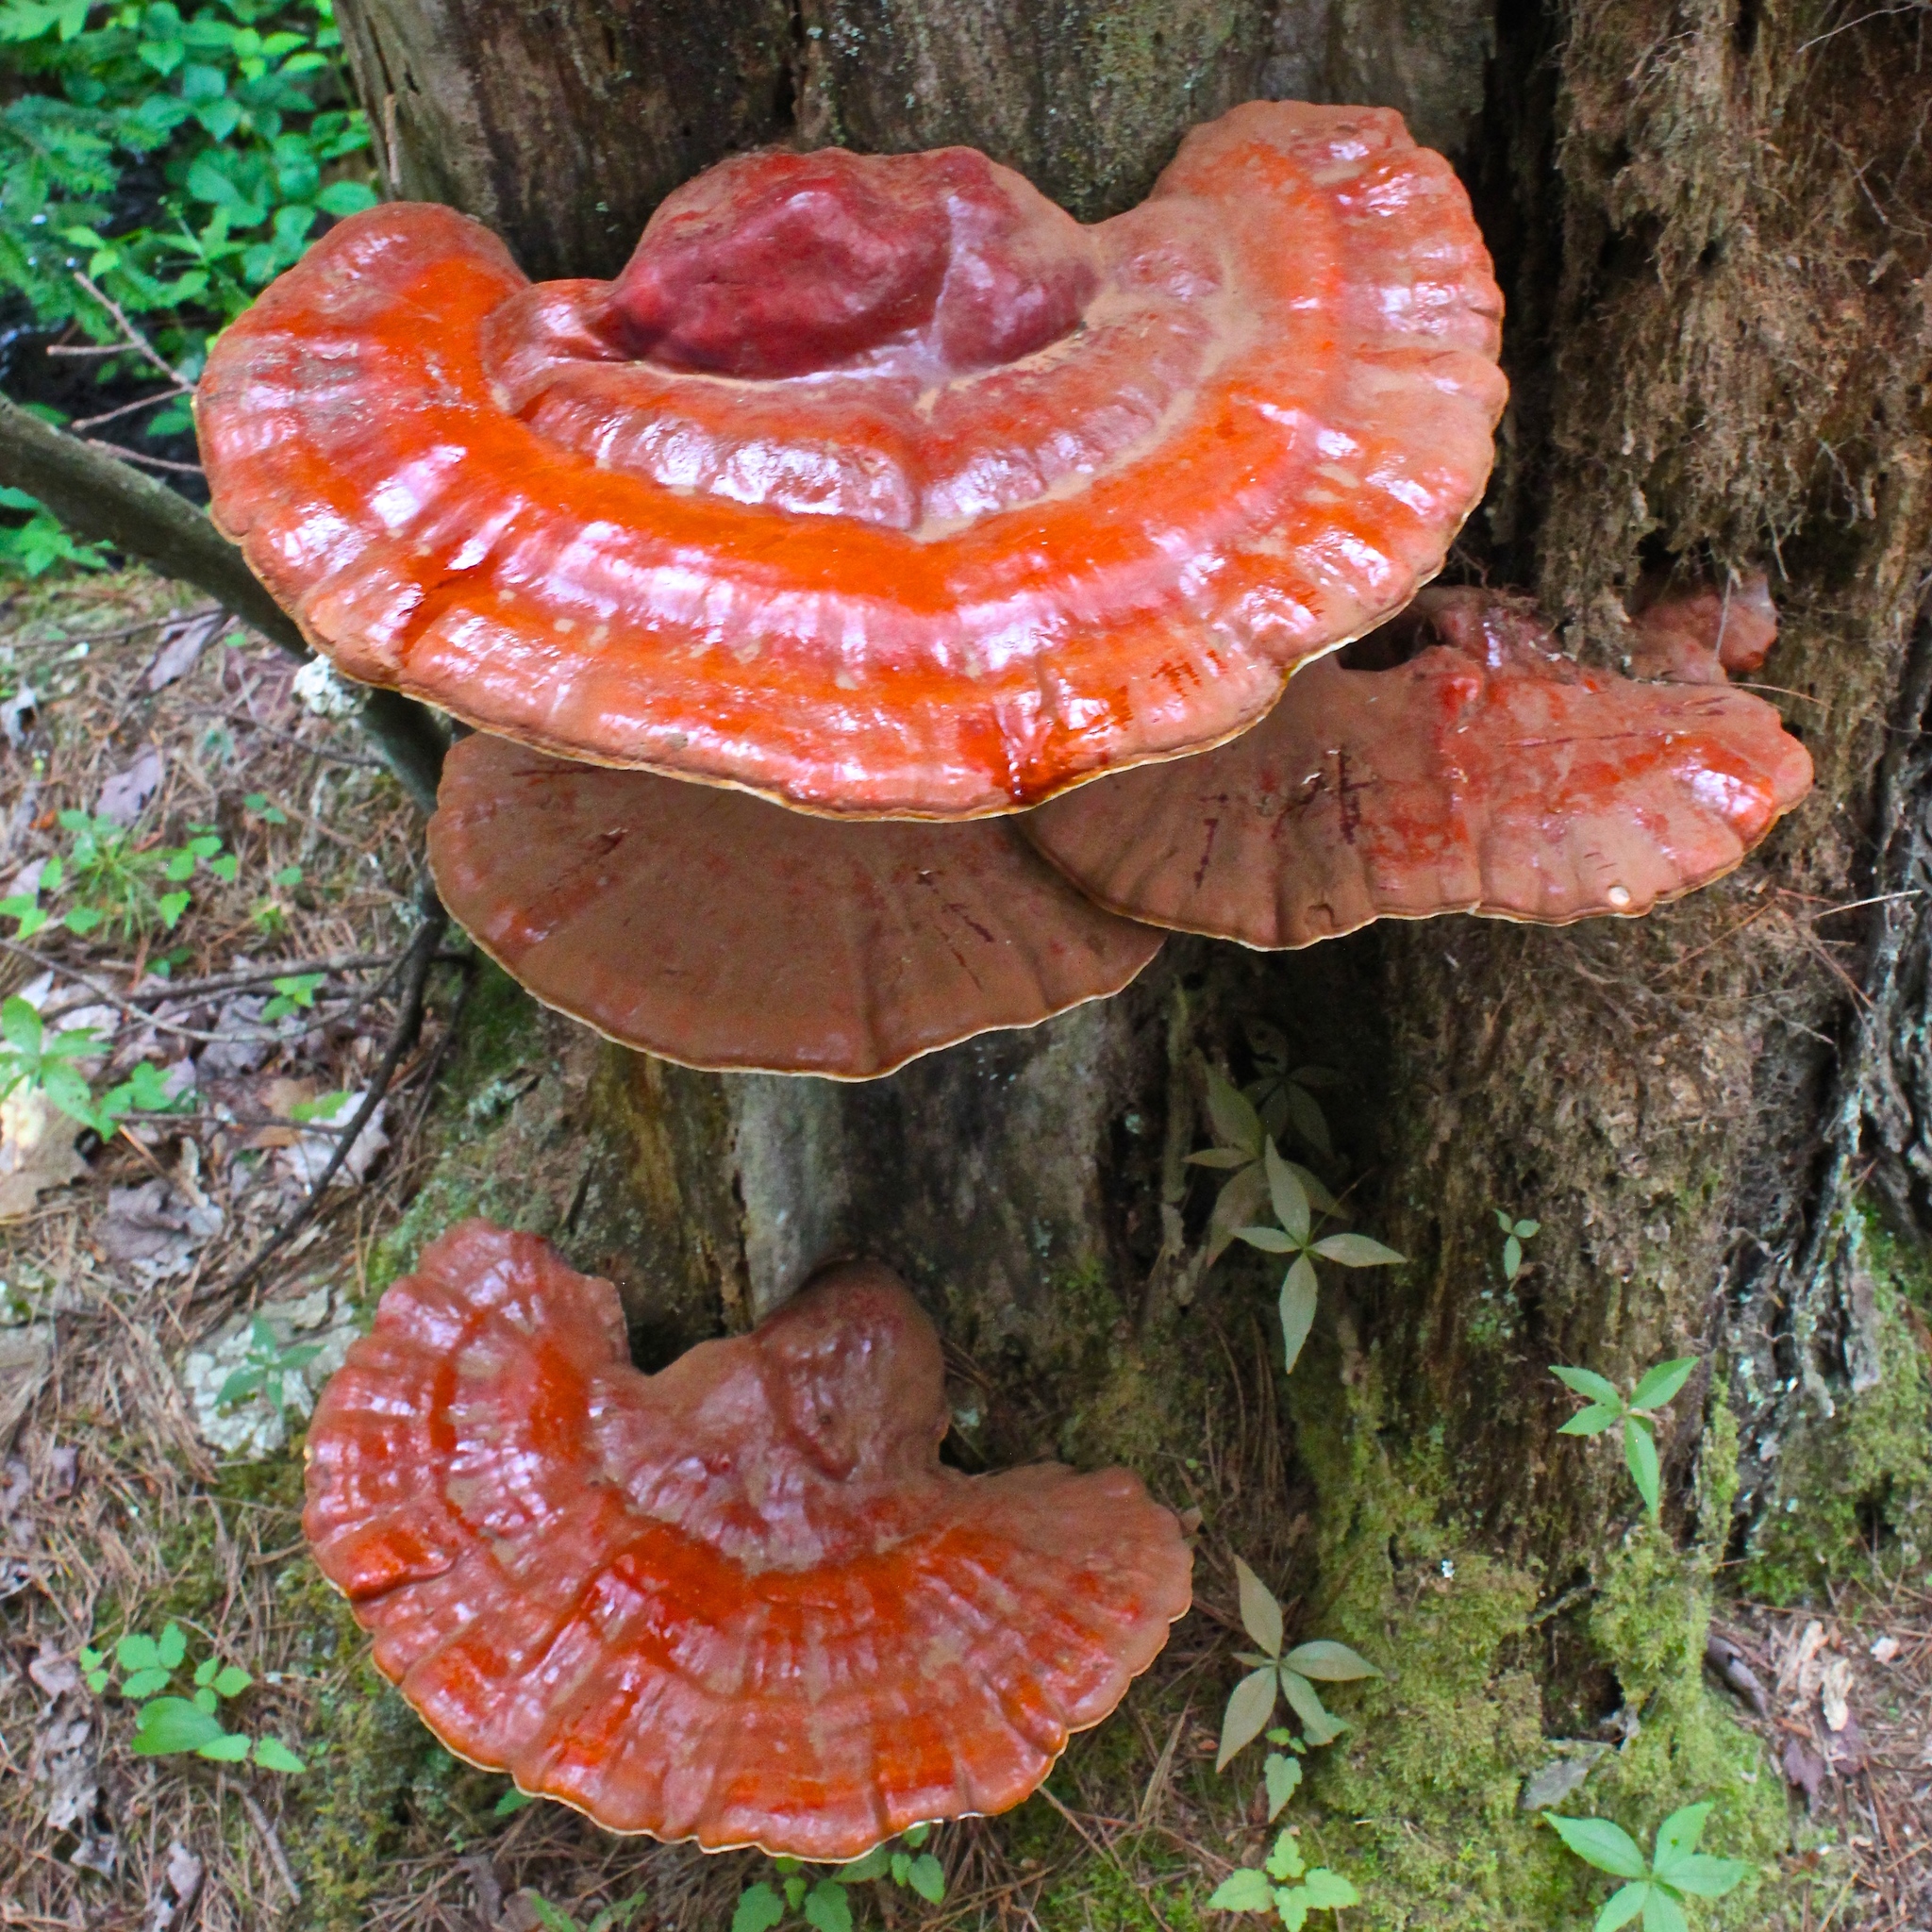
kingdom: Fungi
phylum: Basidiomycota
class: Agaricomycetes
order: Polyporales
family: Polyporaceae
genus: Ganoderma
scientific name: Ganoderma tsugae
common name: Hemlock varnish shelf
